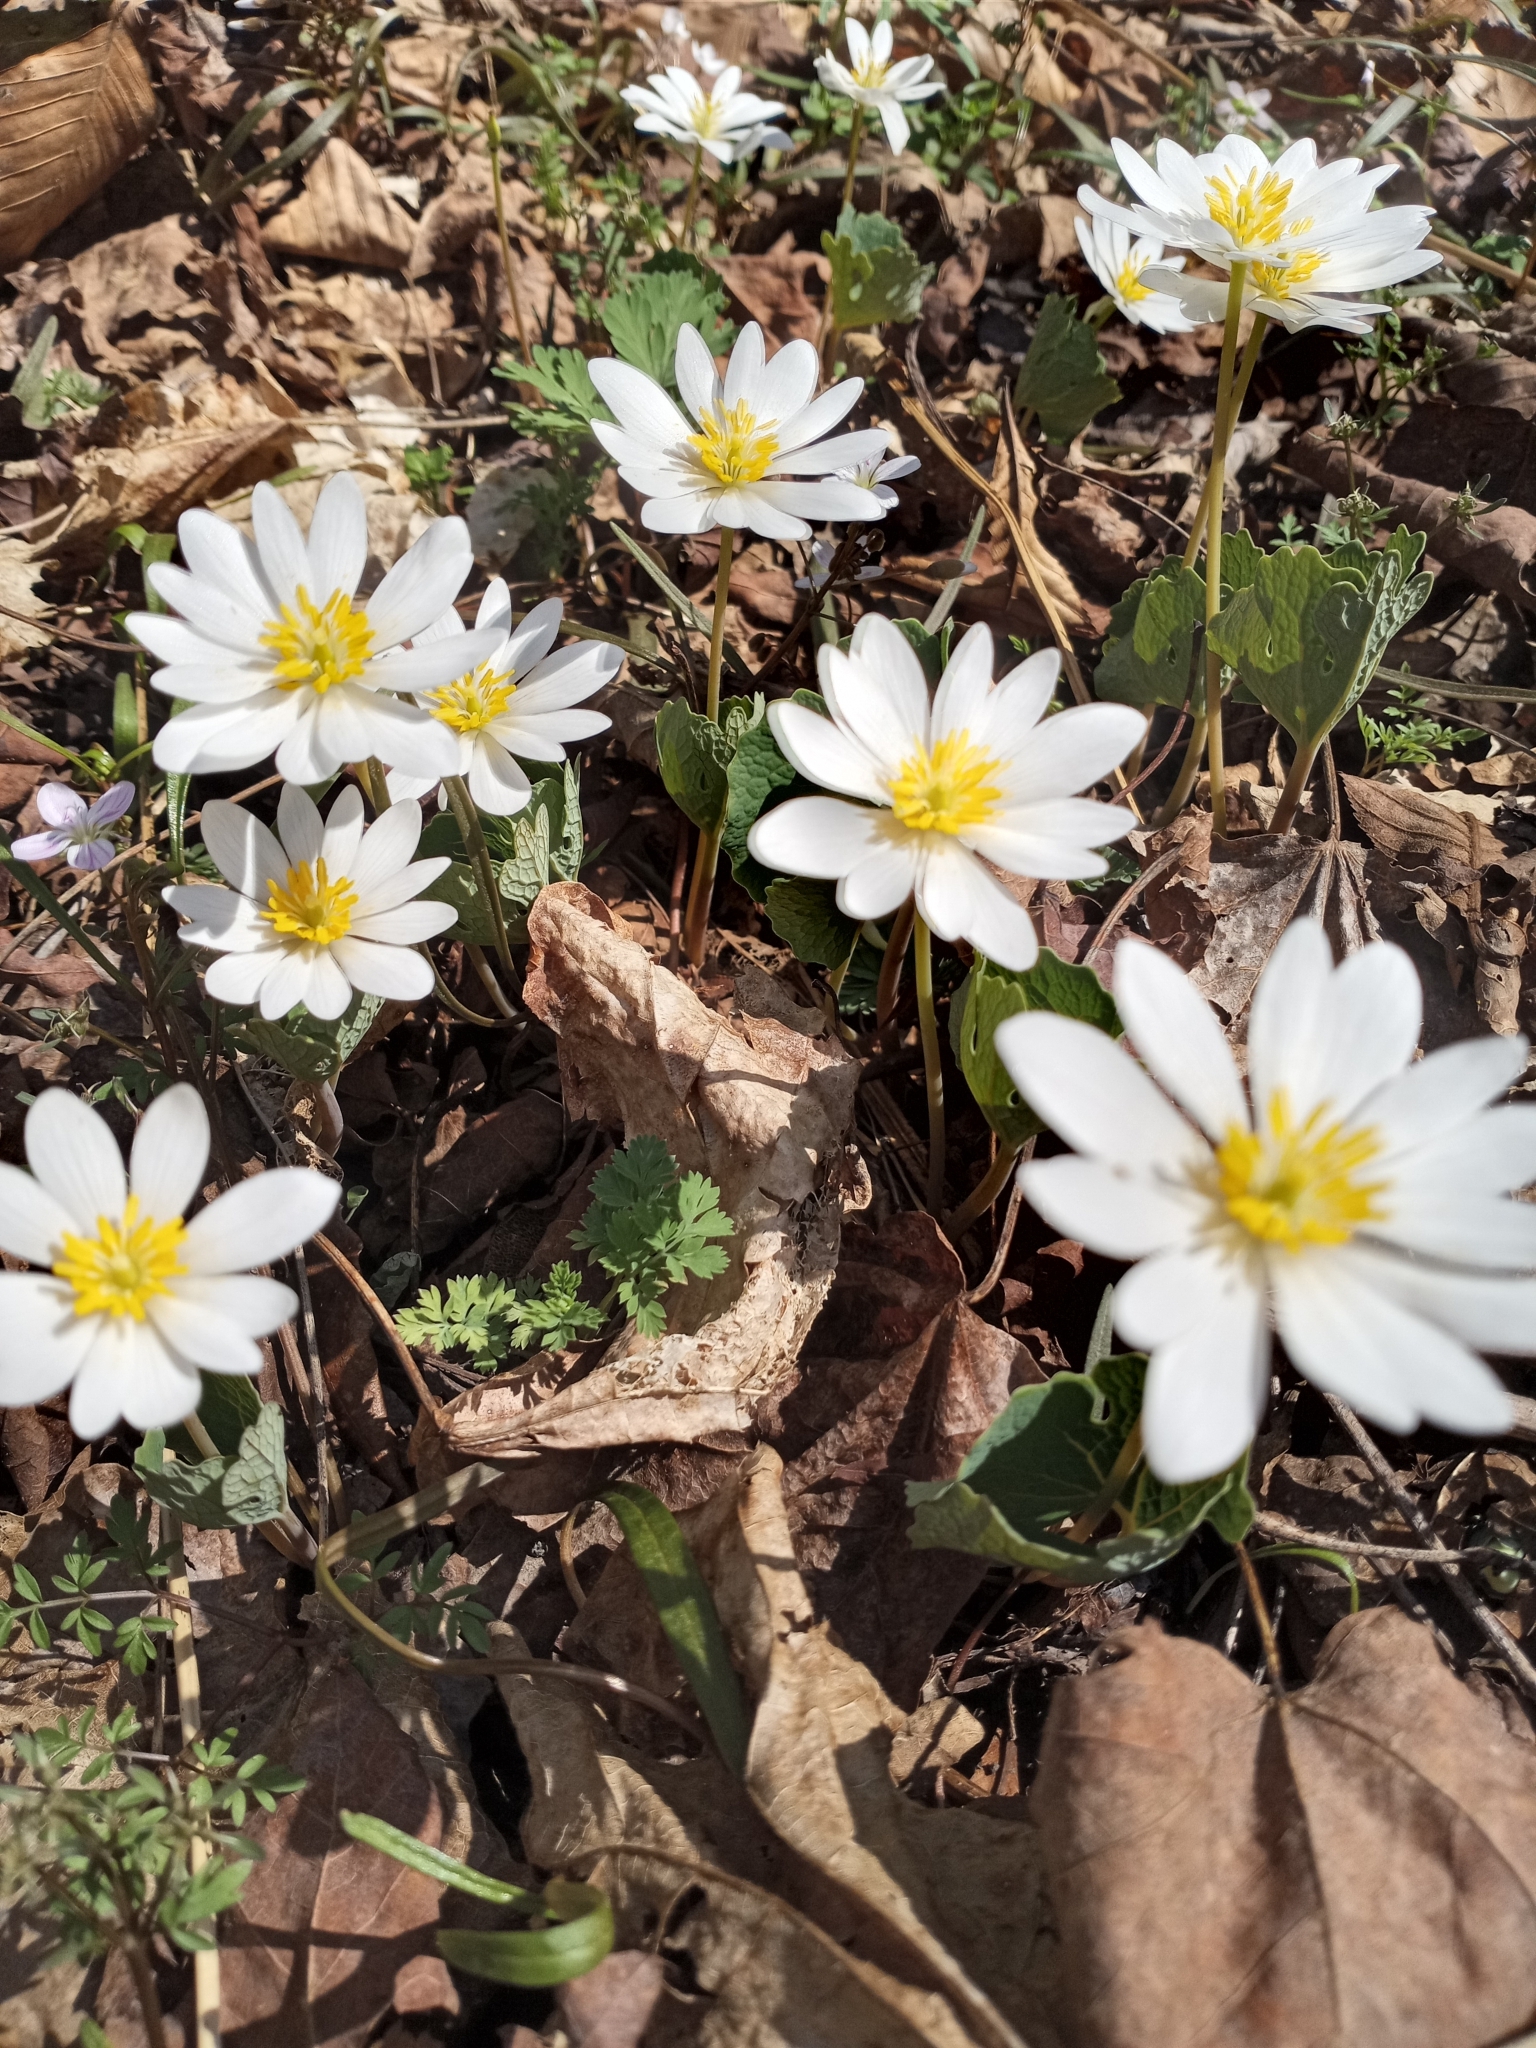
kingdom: Plantae
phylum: Tracheophyta
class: Magnoliopsida
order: Ranunculales
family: Papaveraceae
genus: Sanguinaria
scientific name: Sanguinaria canadensis
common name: Bloodroot
